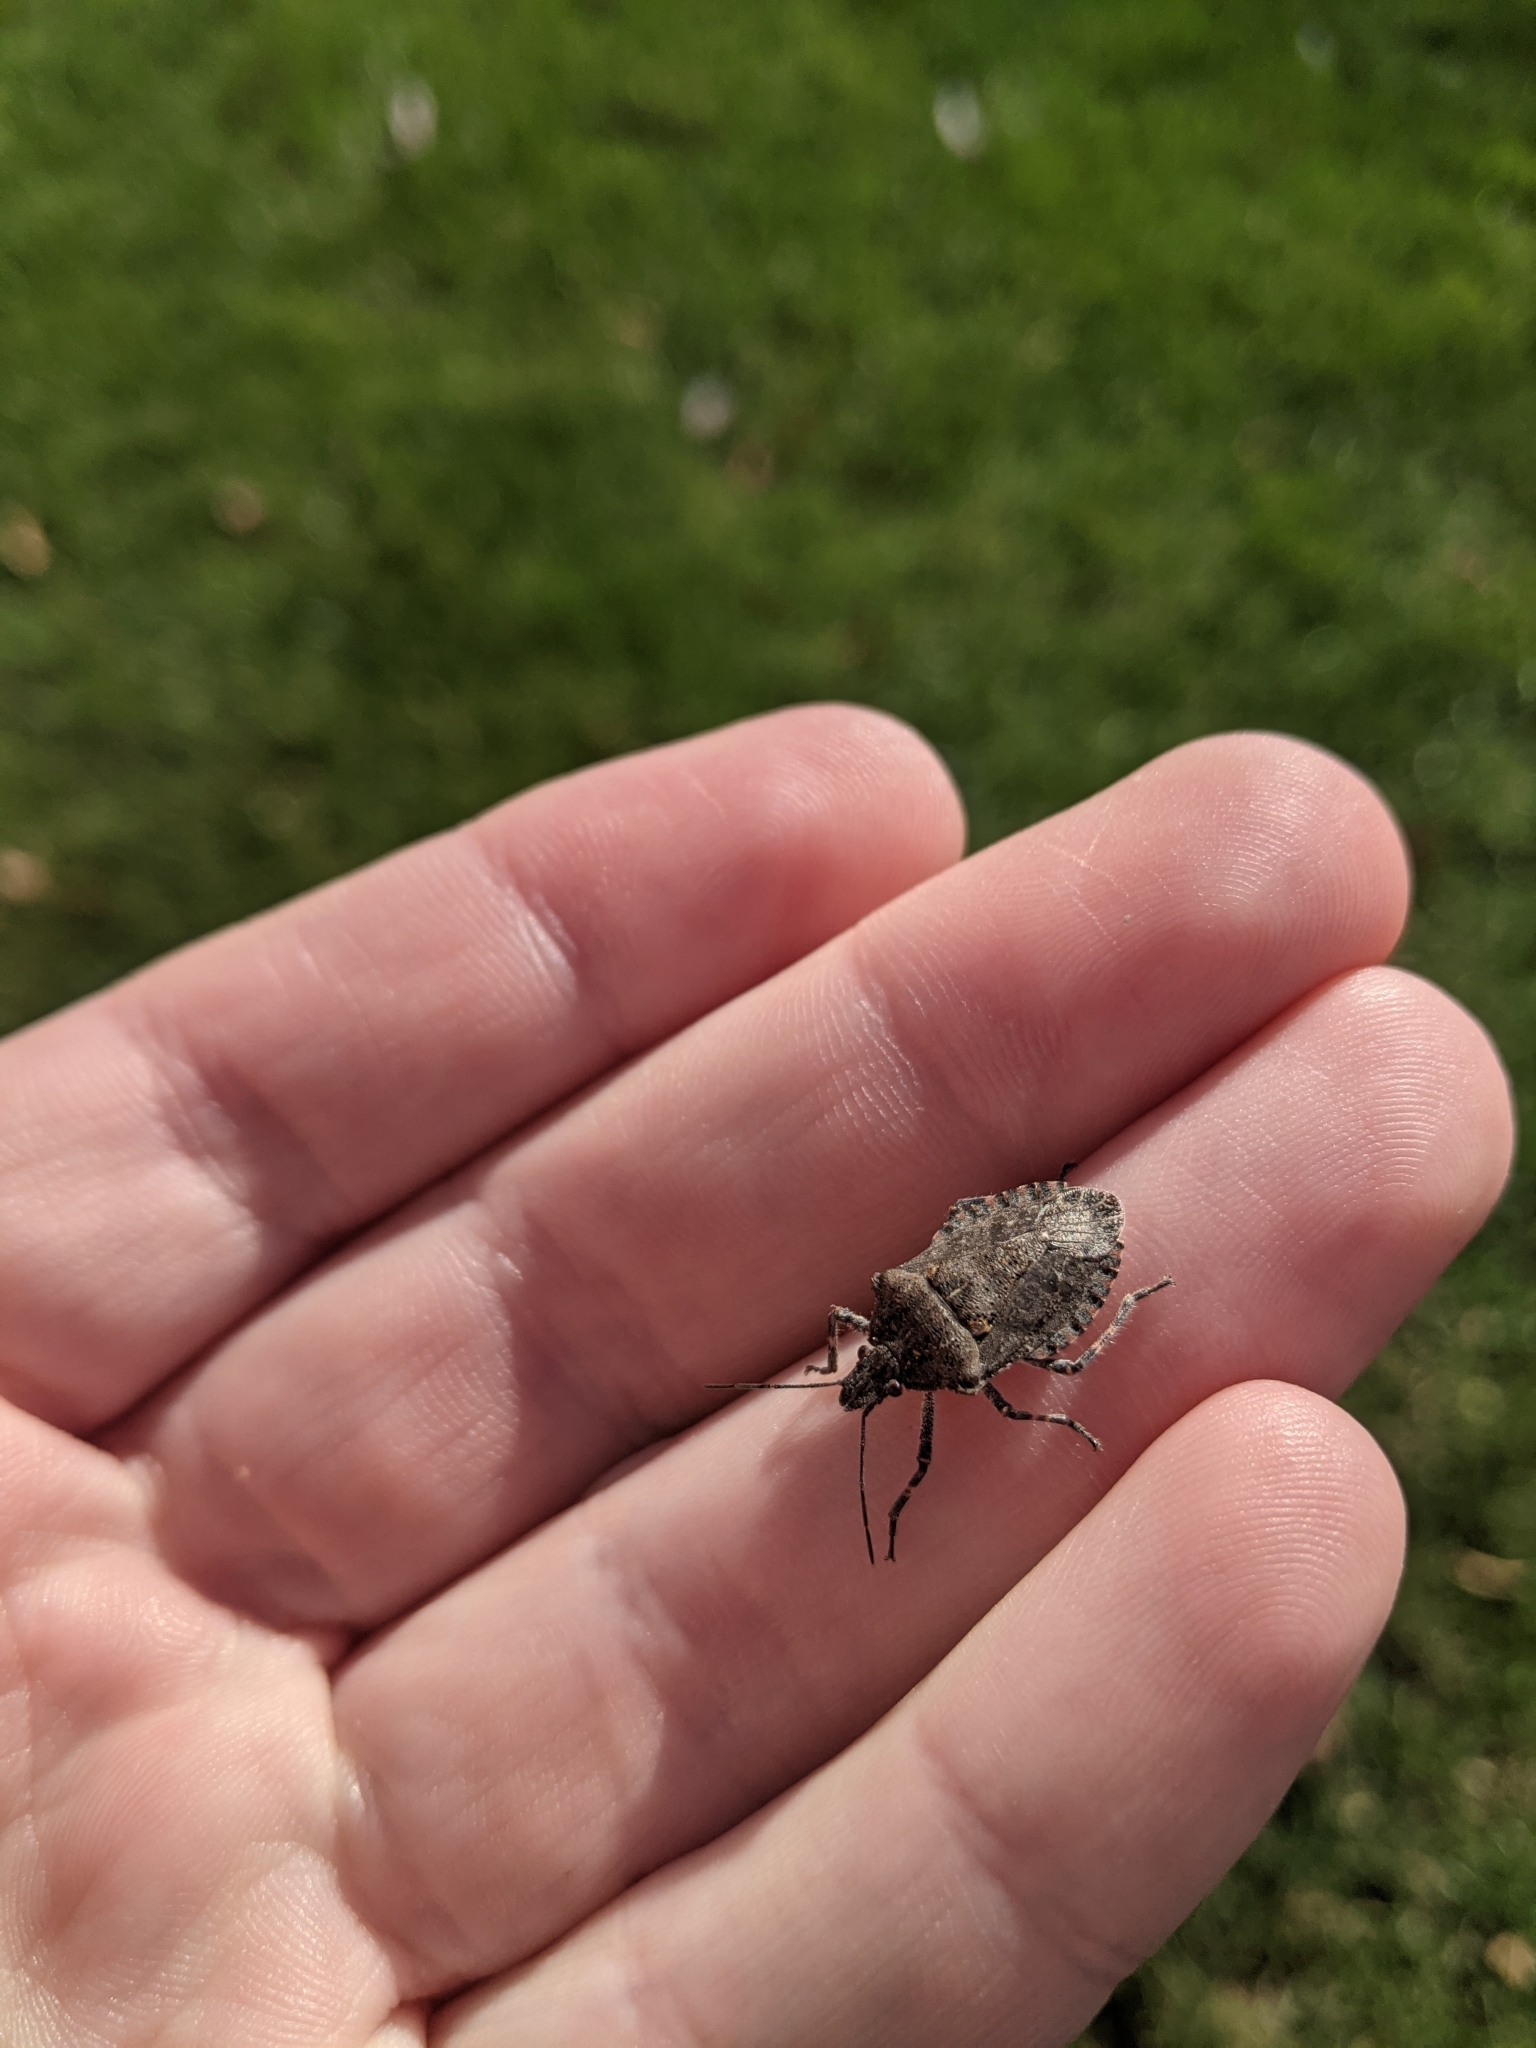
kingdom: Animalia
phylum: Arthropoda
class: Insecta
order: Hemiptera
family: Pentatomidae
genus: Brochymena
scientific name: Brochymena quadripustulata
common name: Four-humped stink bug
